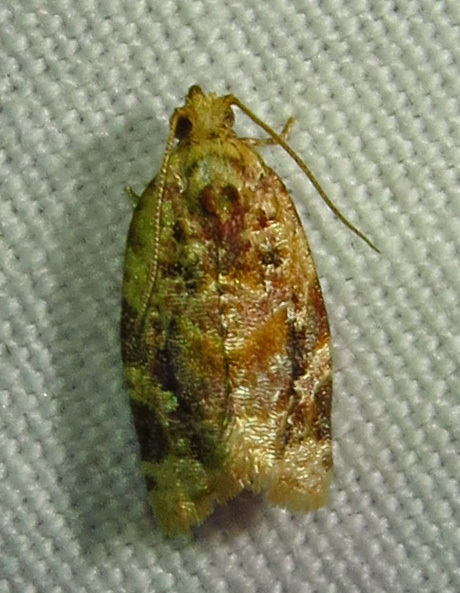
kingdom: Animalia
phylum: Arthropoda
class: Insecta
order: Lepidoptera
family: Tortricidae
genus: Argyrotaenia
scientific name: Argyrotaenia velutinana
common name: Red-banded leafroller moth
